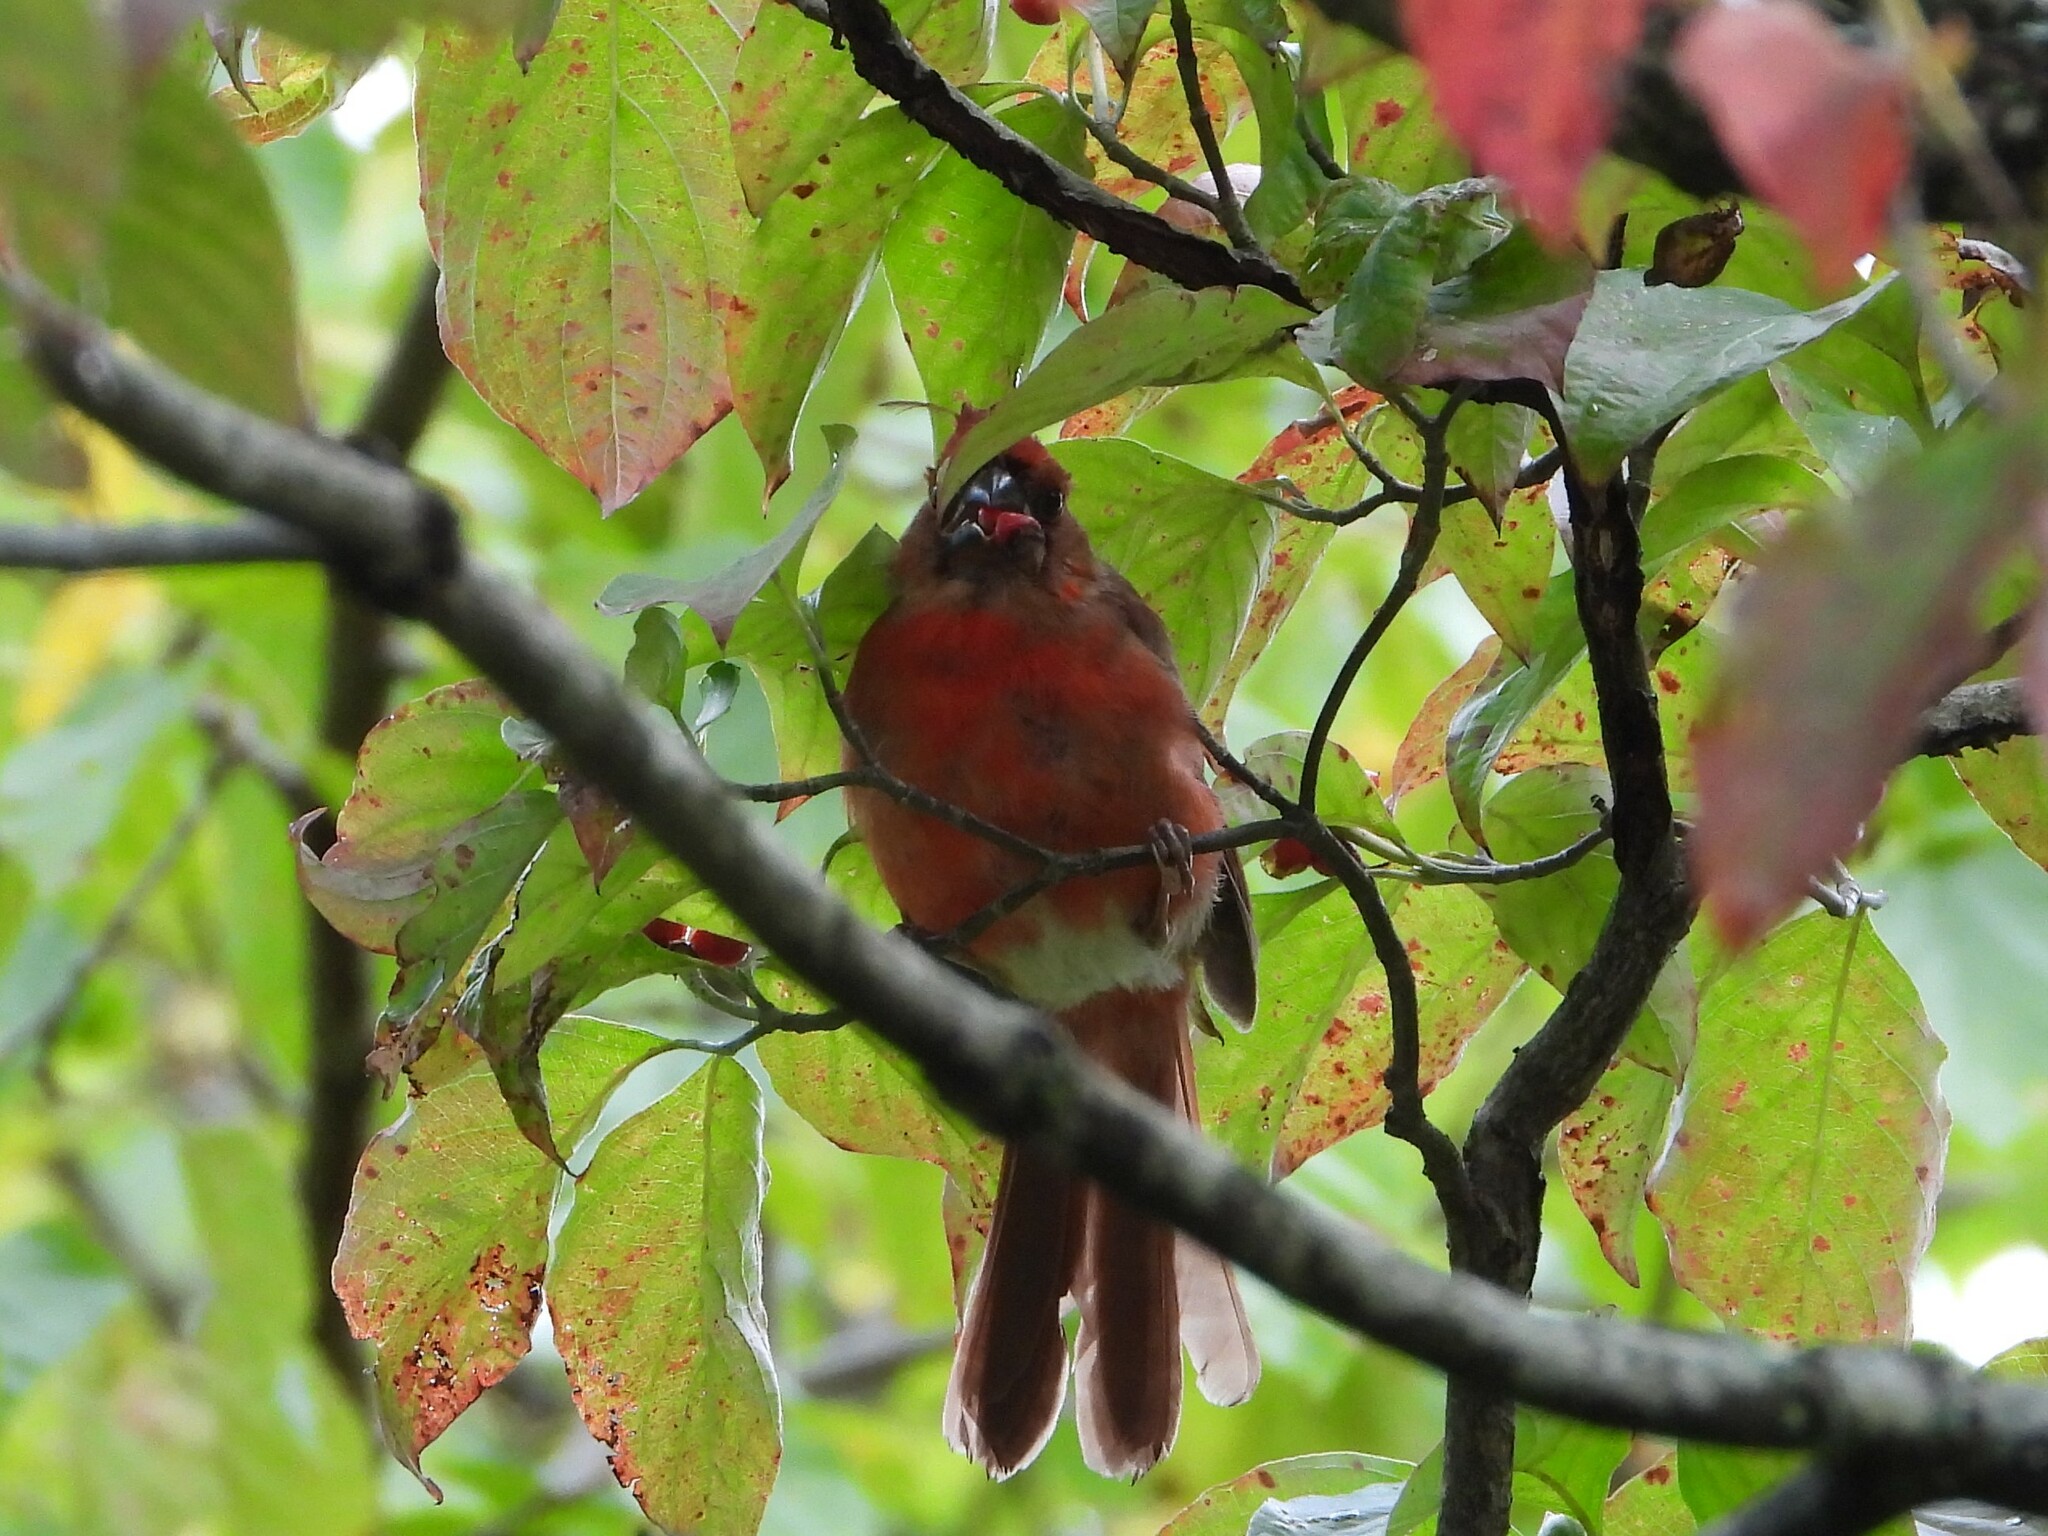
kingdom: Animalia
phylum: Chordata
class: Aves
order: Passeriformes
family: Cardinalidae
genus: Cardinalis
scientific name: Cardinalis cardinalis
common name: Northern cardinal
